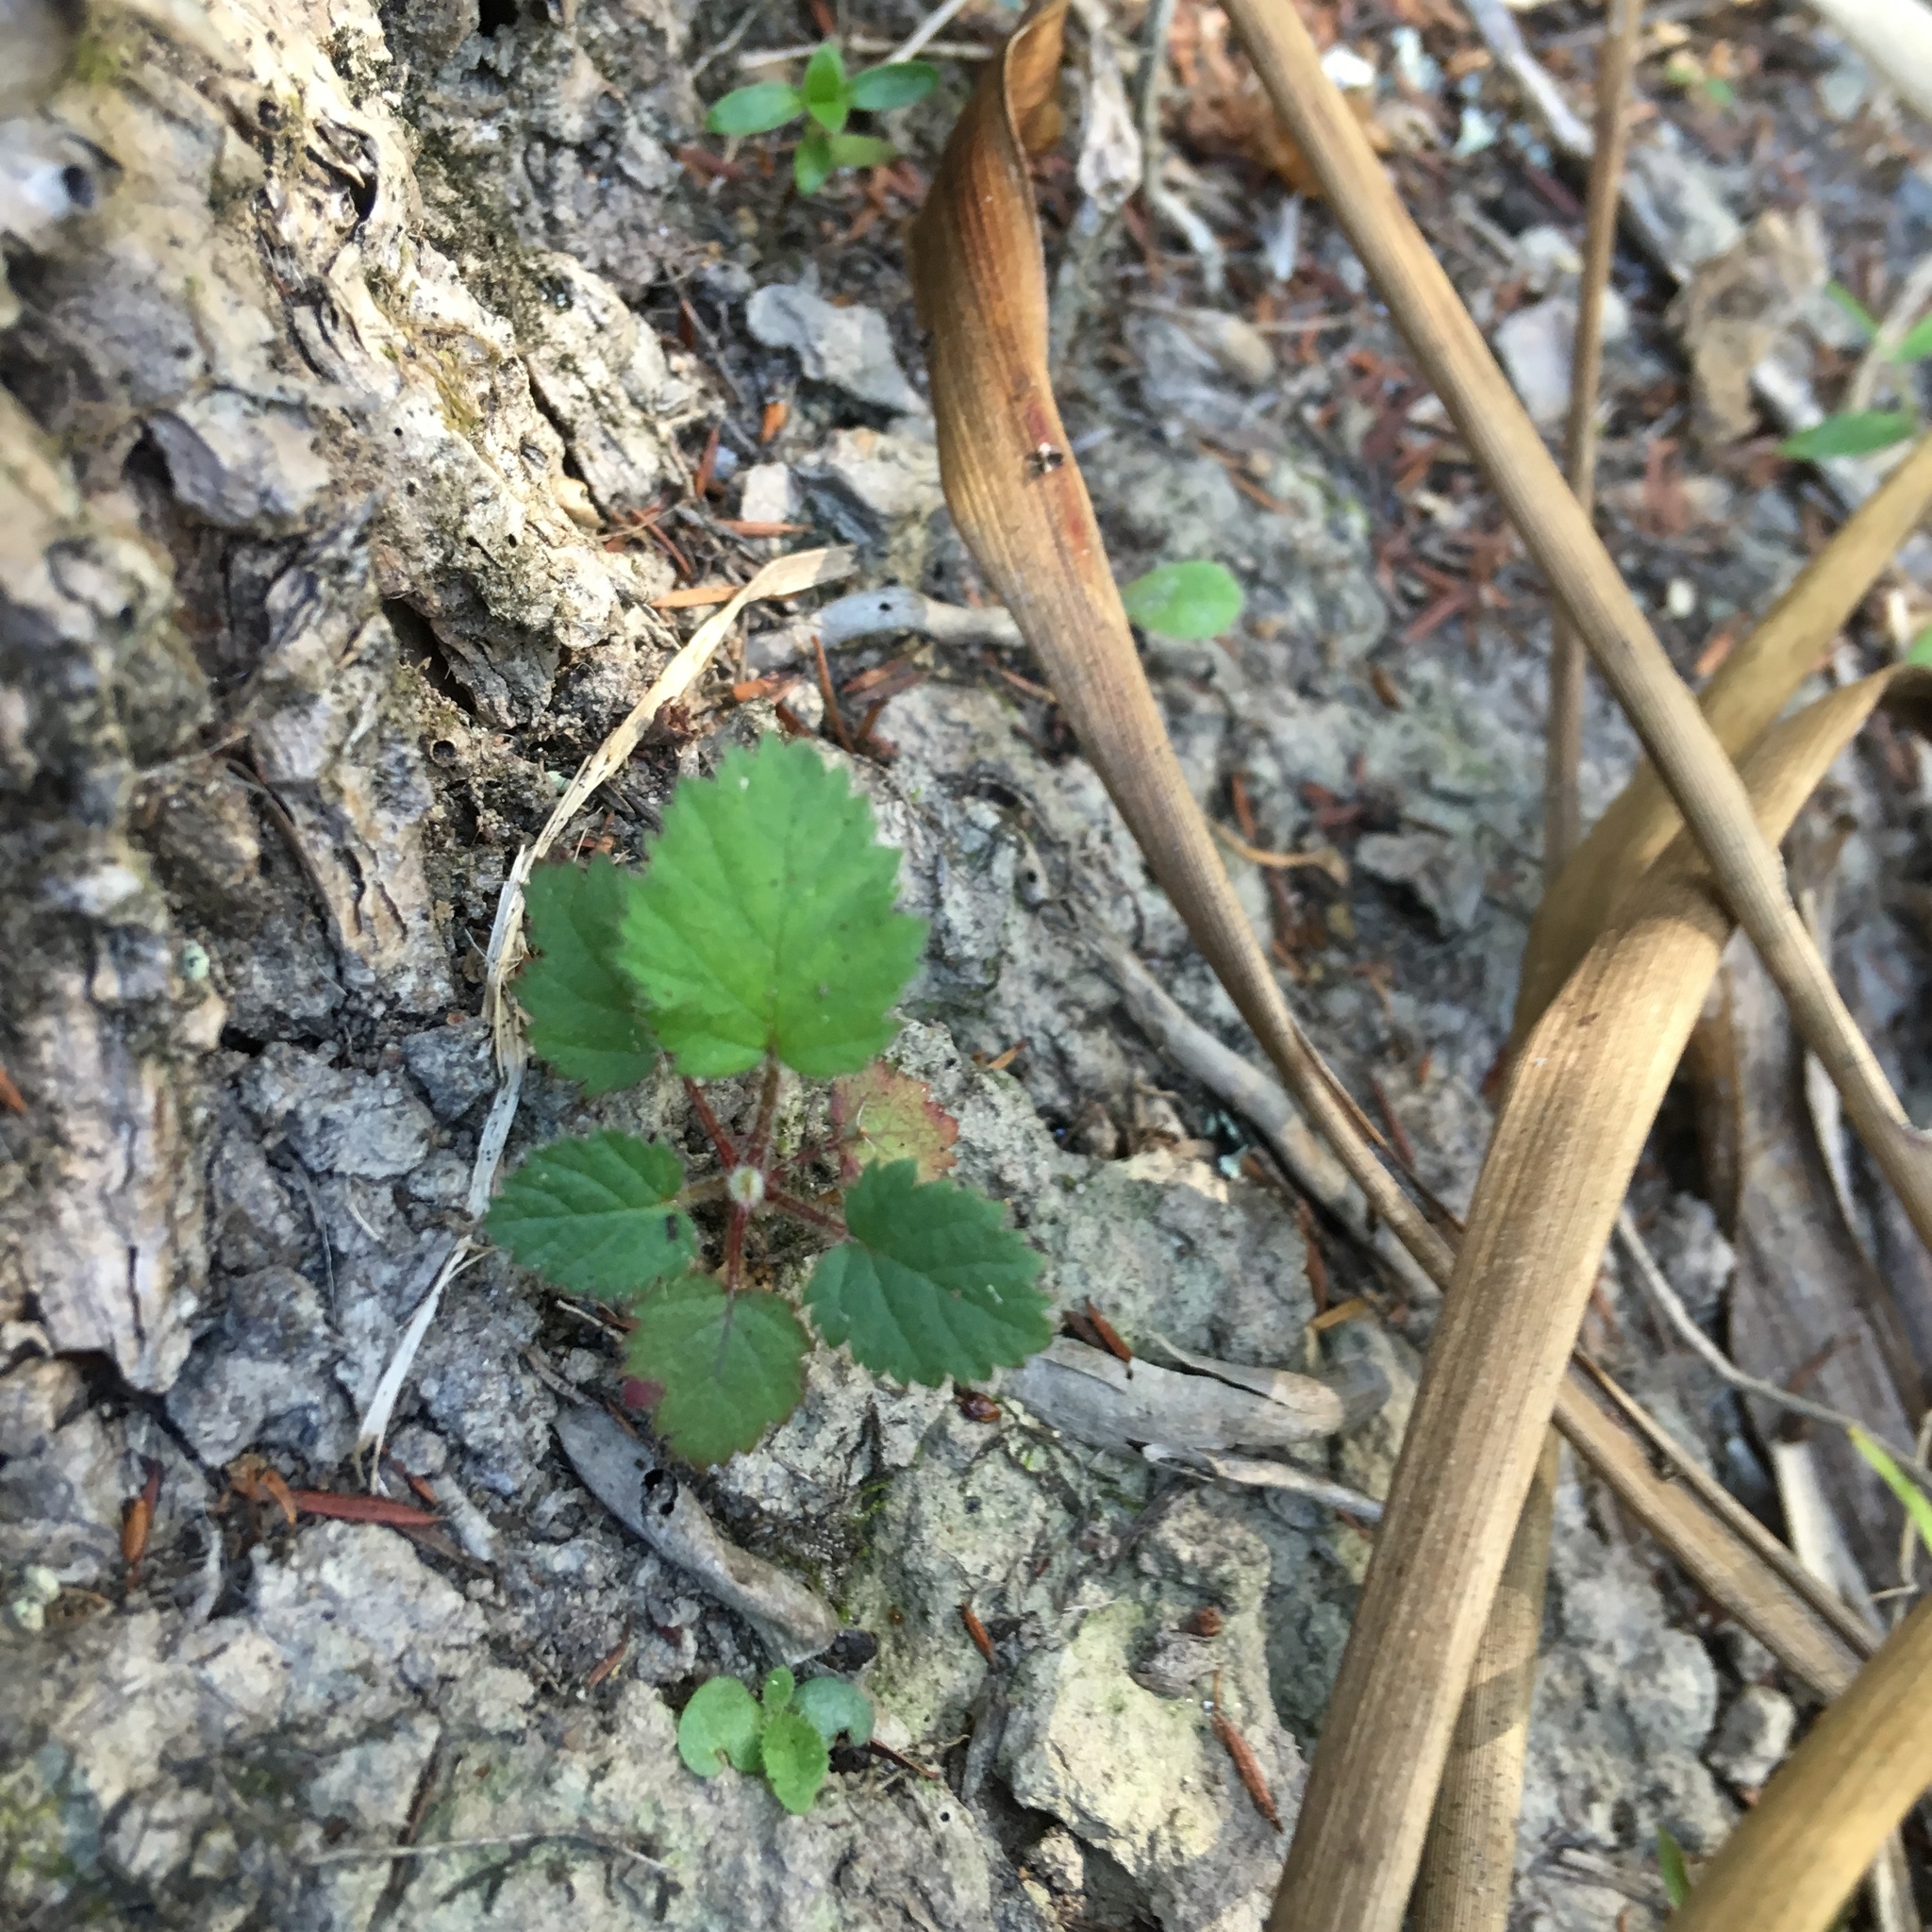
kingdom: Plantae
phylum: Tracheophyta
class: Magnoliopsida
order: Rosales
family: Rosaceae
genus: Rubus
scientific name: Rubus
